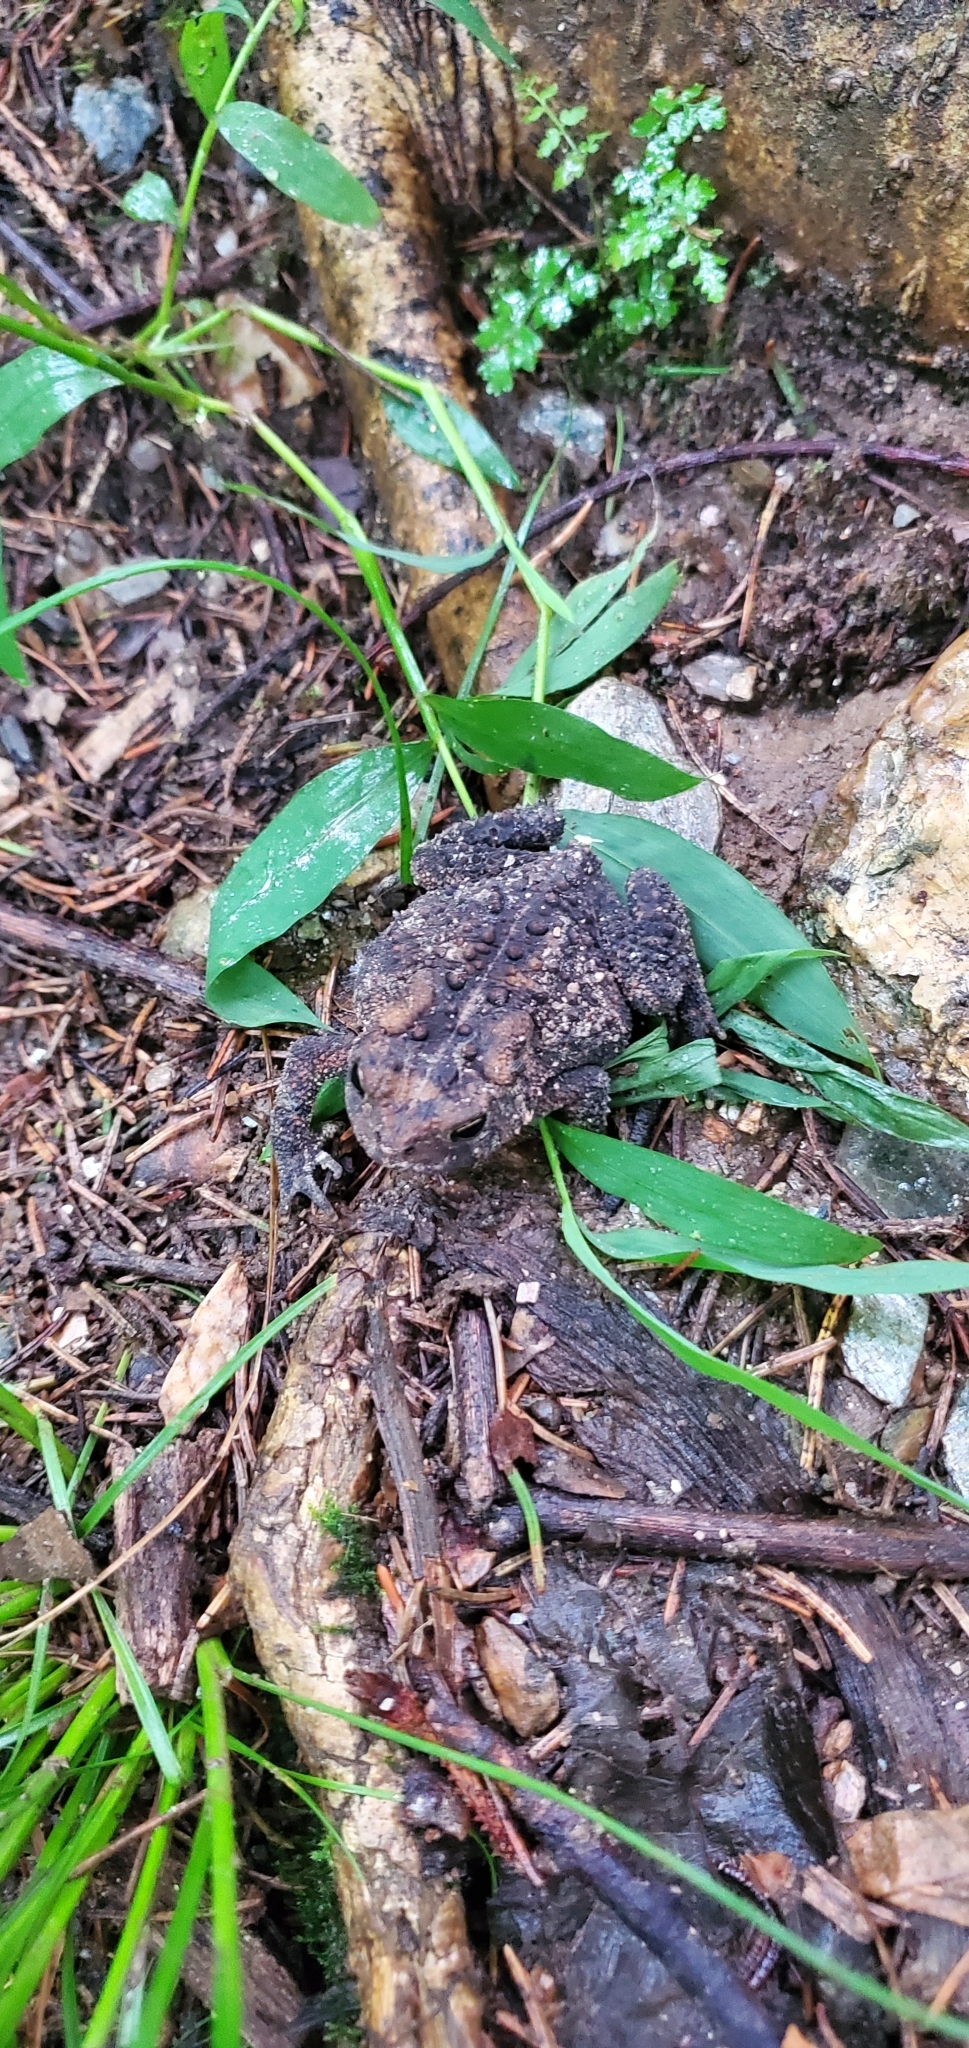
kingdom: Animalia
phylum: Chordata
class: Amphibia
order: Anura
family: Bufonidae
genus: Anaxyrus
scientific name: Anaxyrus americanus
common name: American toad
